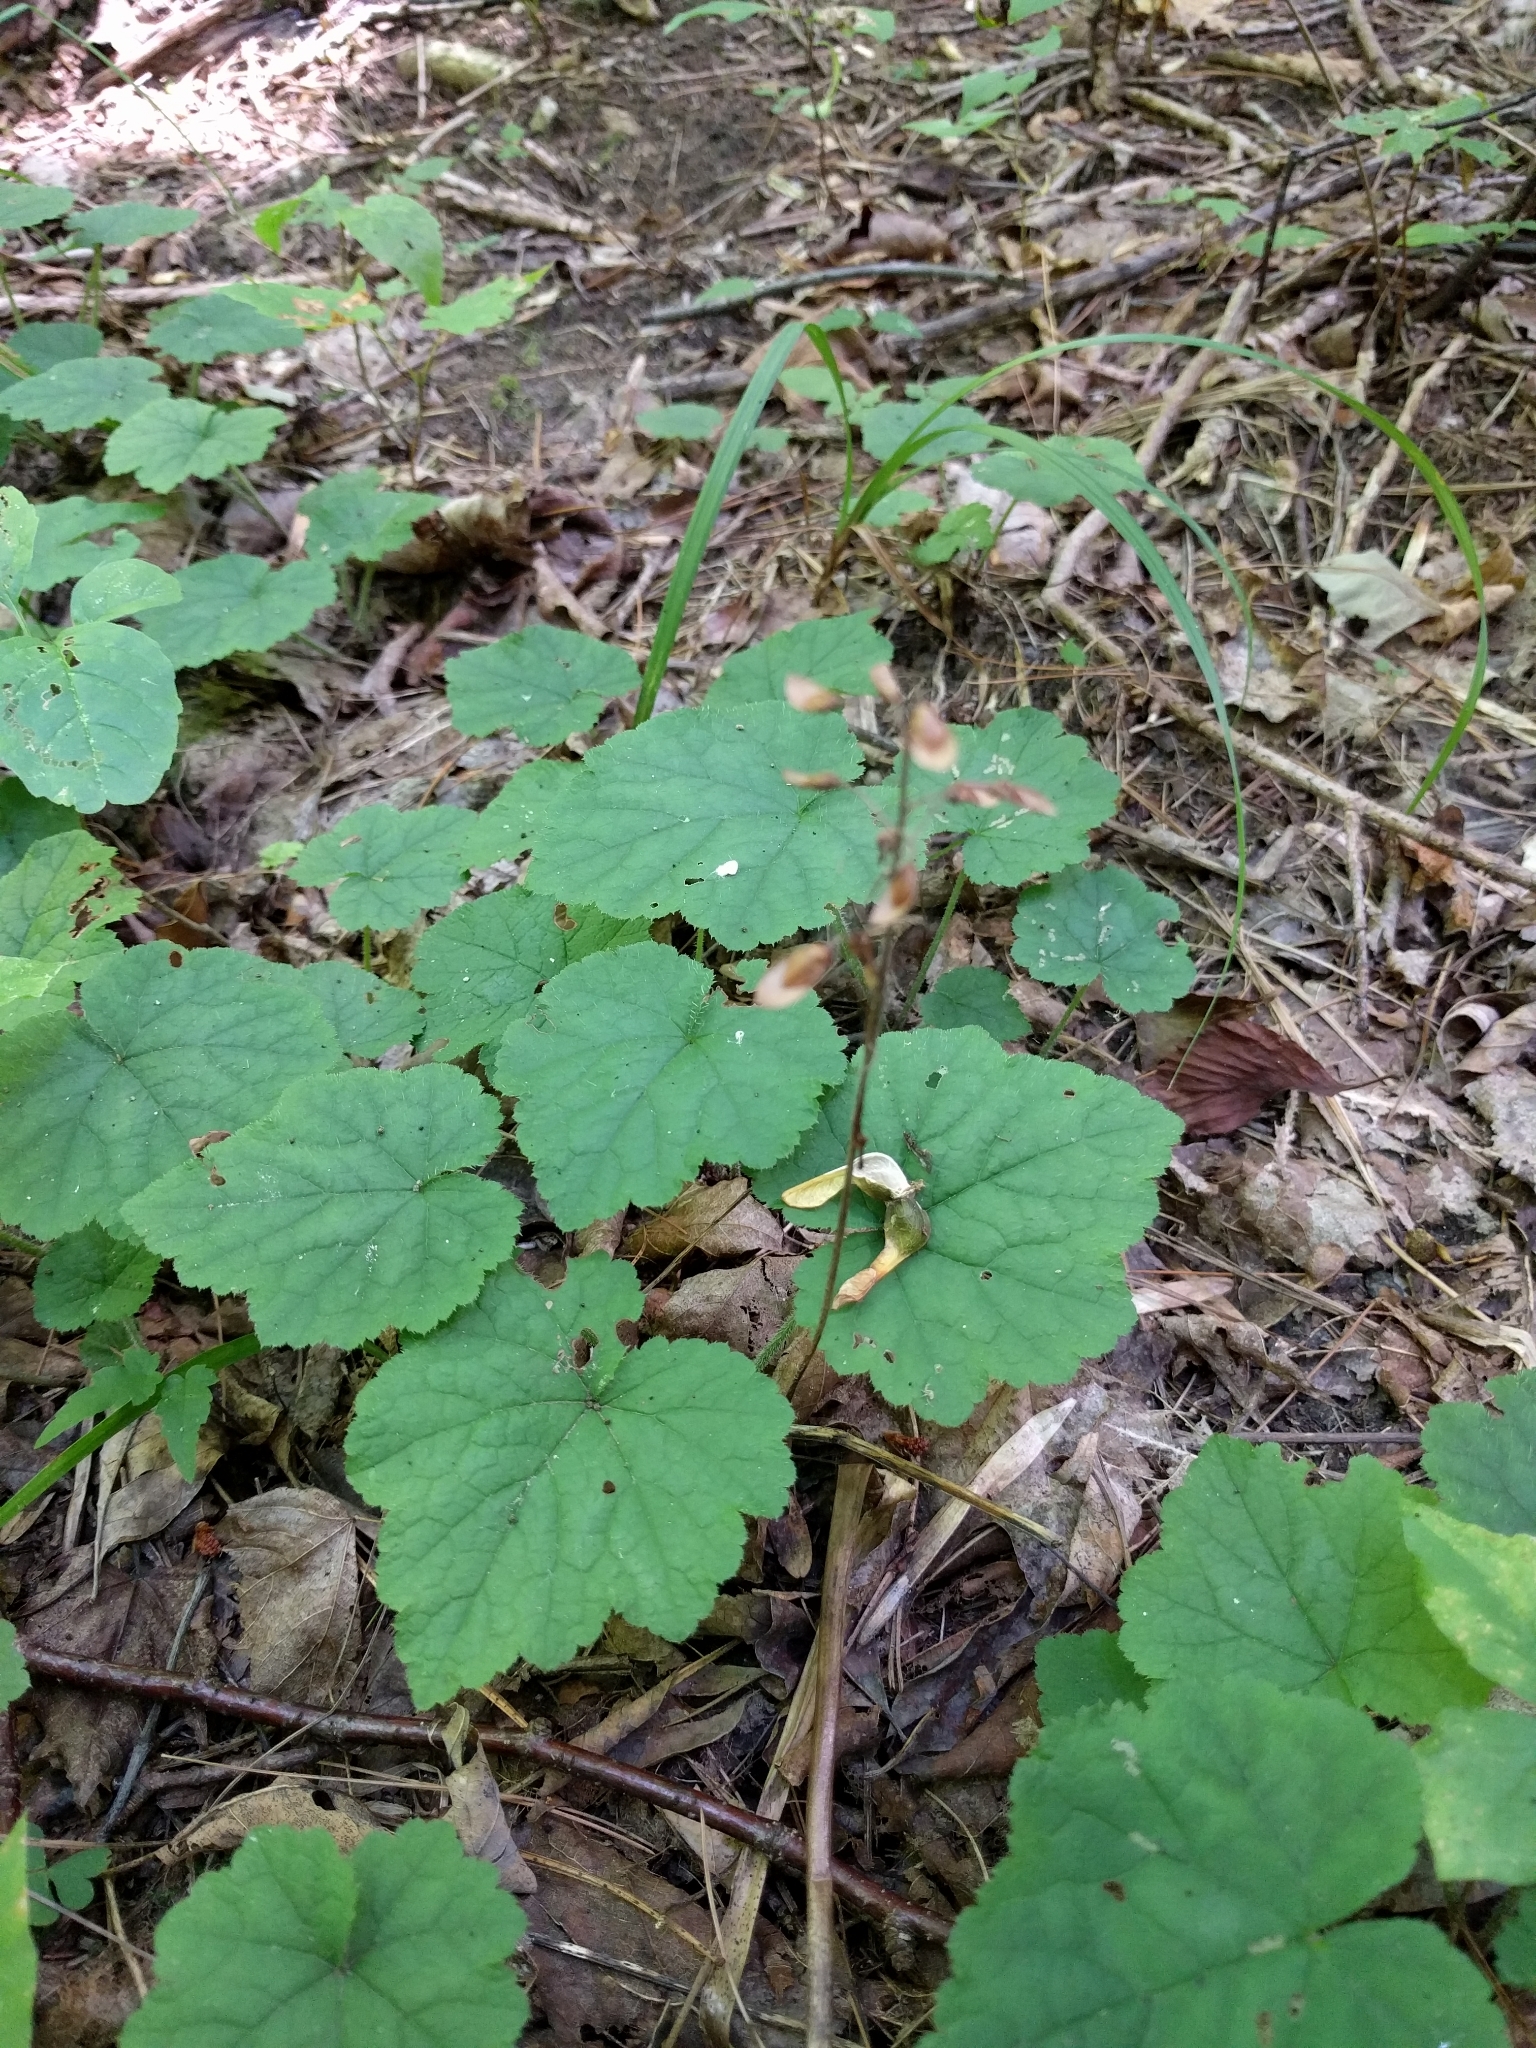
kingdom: Plantae
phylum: Tracheophyta
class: Magnoliopsida
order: Saxifragales
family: Saxifragaceae
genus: Tiarella
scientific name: Tiarella stolonifera
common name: Stoloniferous foamflower
